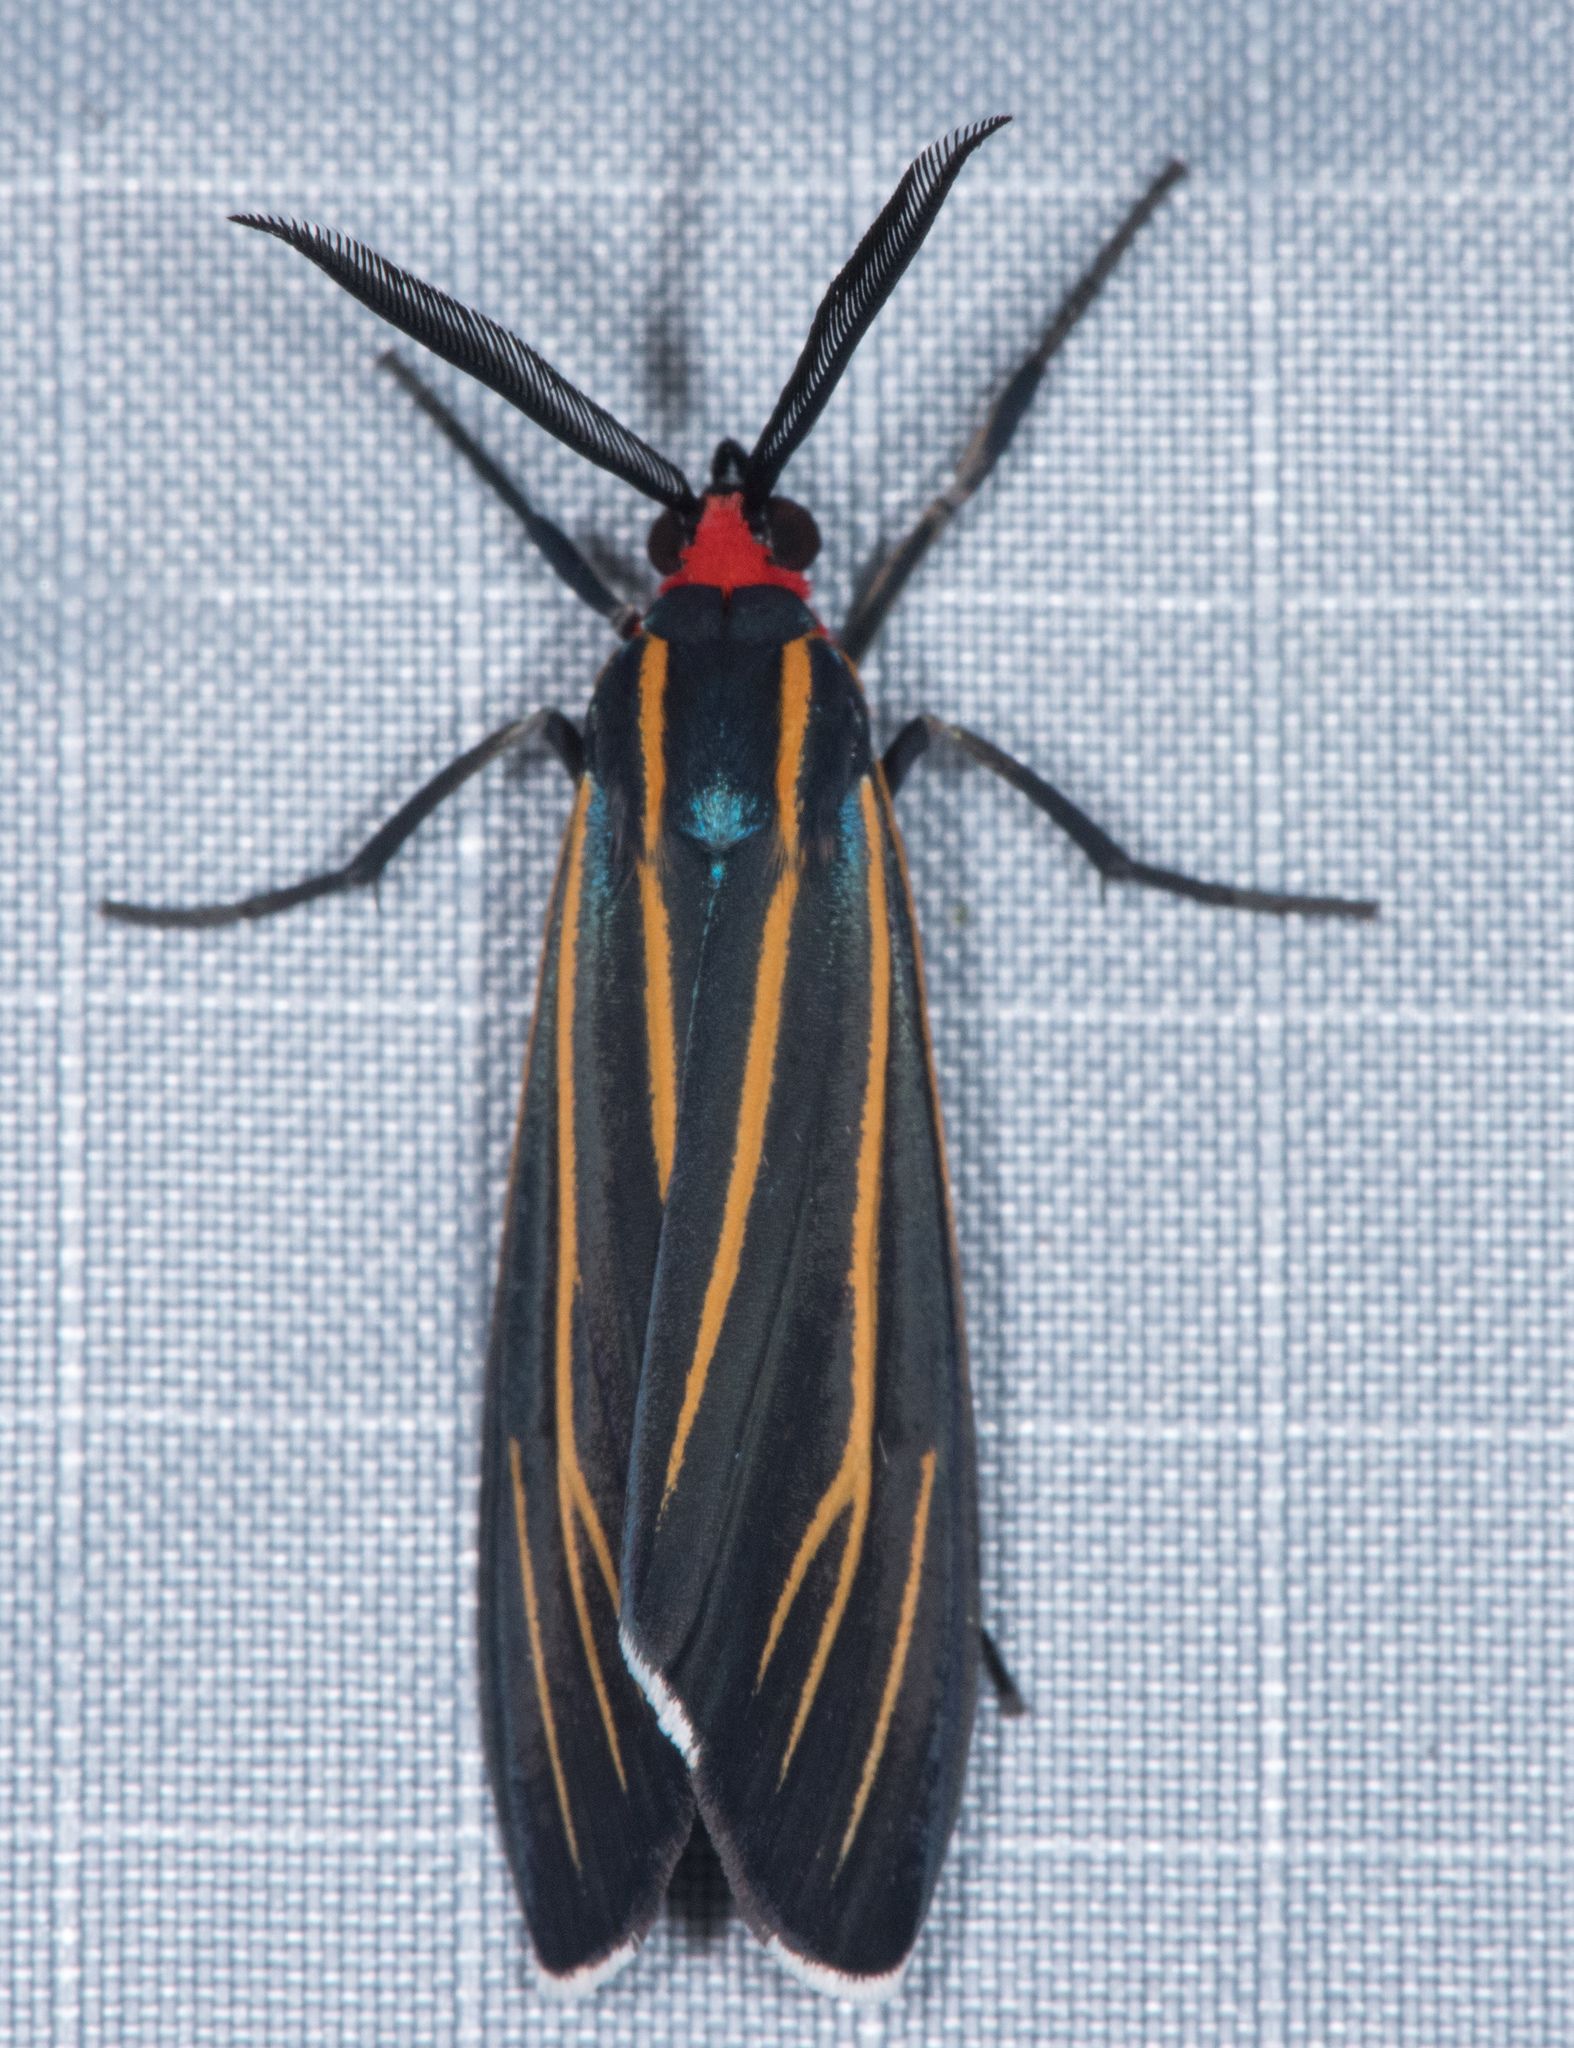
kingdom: Animalia
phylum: Arthropoda
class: Insecta
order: Lepidoptera
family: Erebidae
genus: Ctenucha
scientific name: Ctenucha venosa
